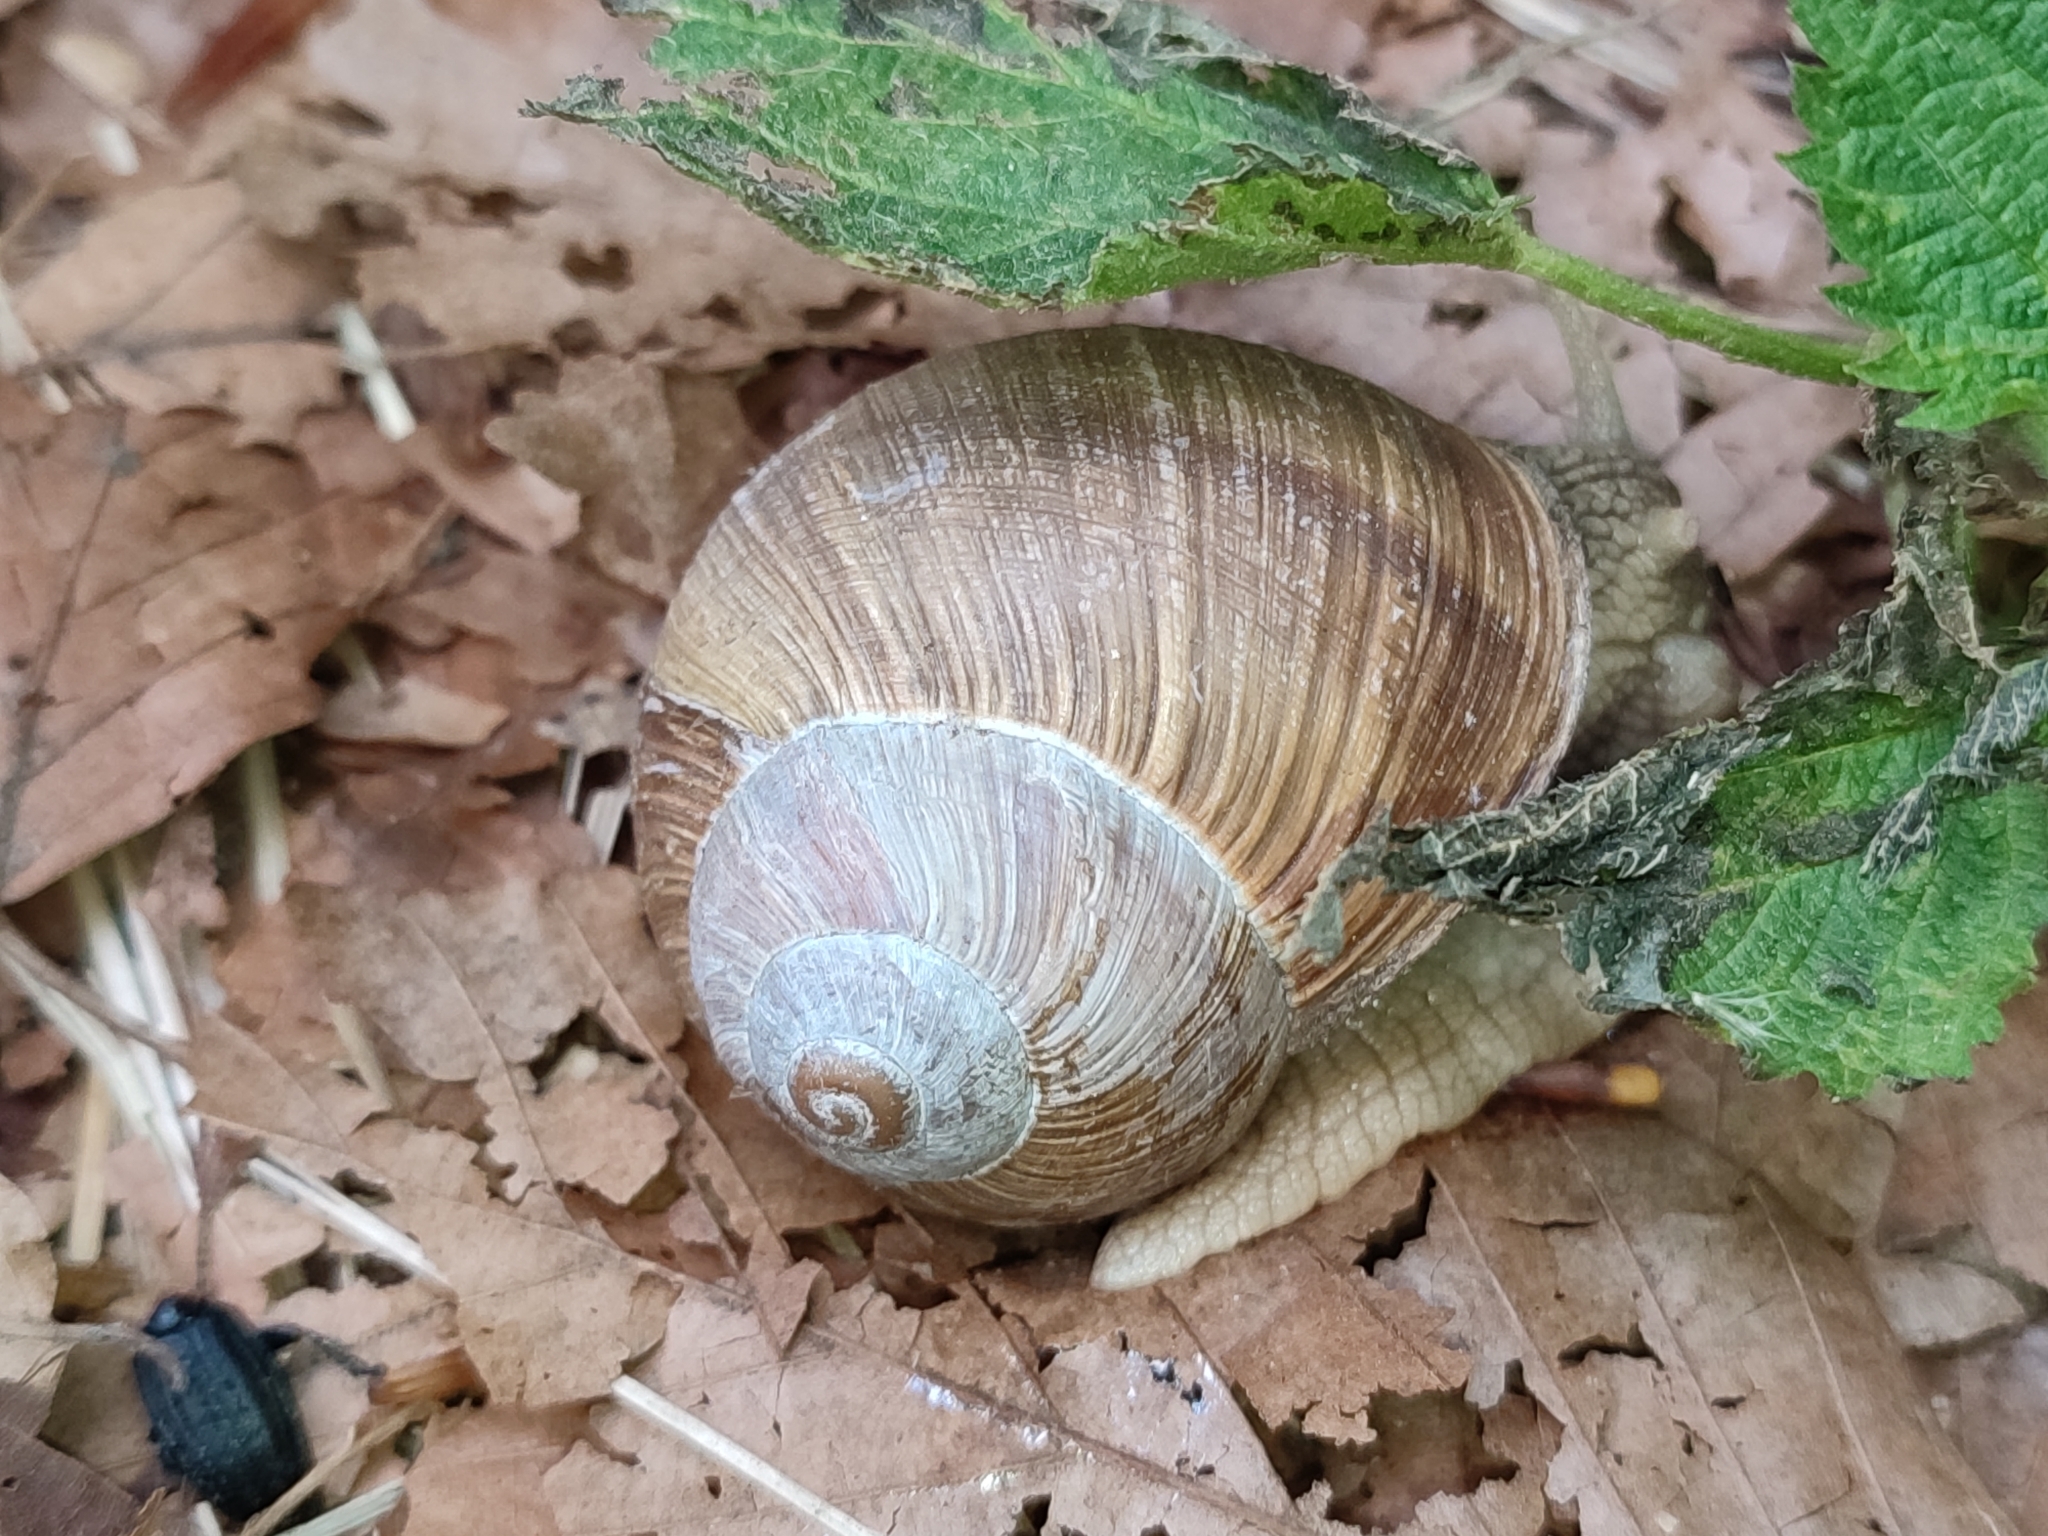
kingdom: Animalia
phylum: Mollusca
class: Gastropoda
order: Stylommatophora
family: Helicidae
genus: Helix
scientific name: Helix pomatia
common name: Roman snail
